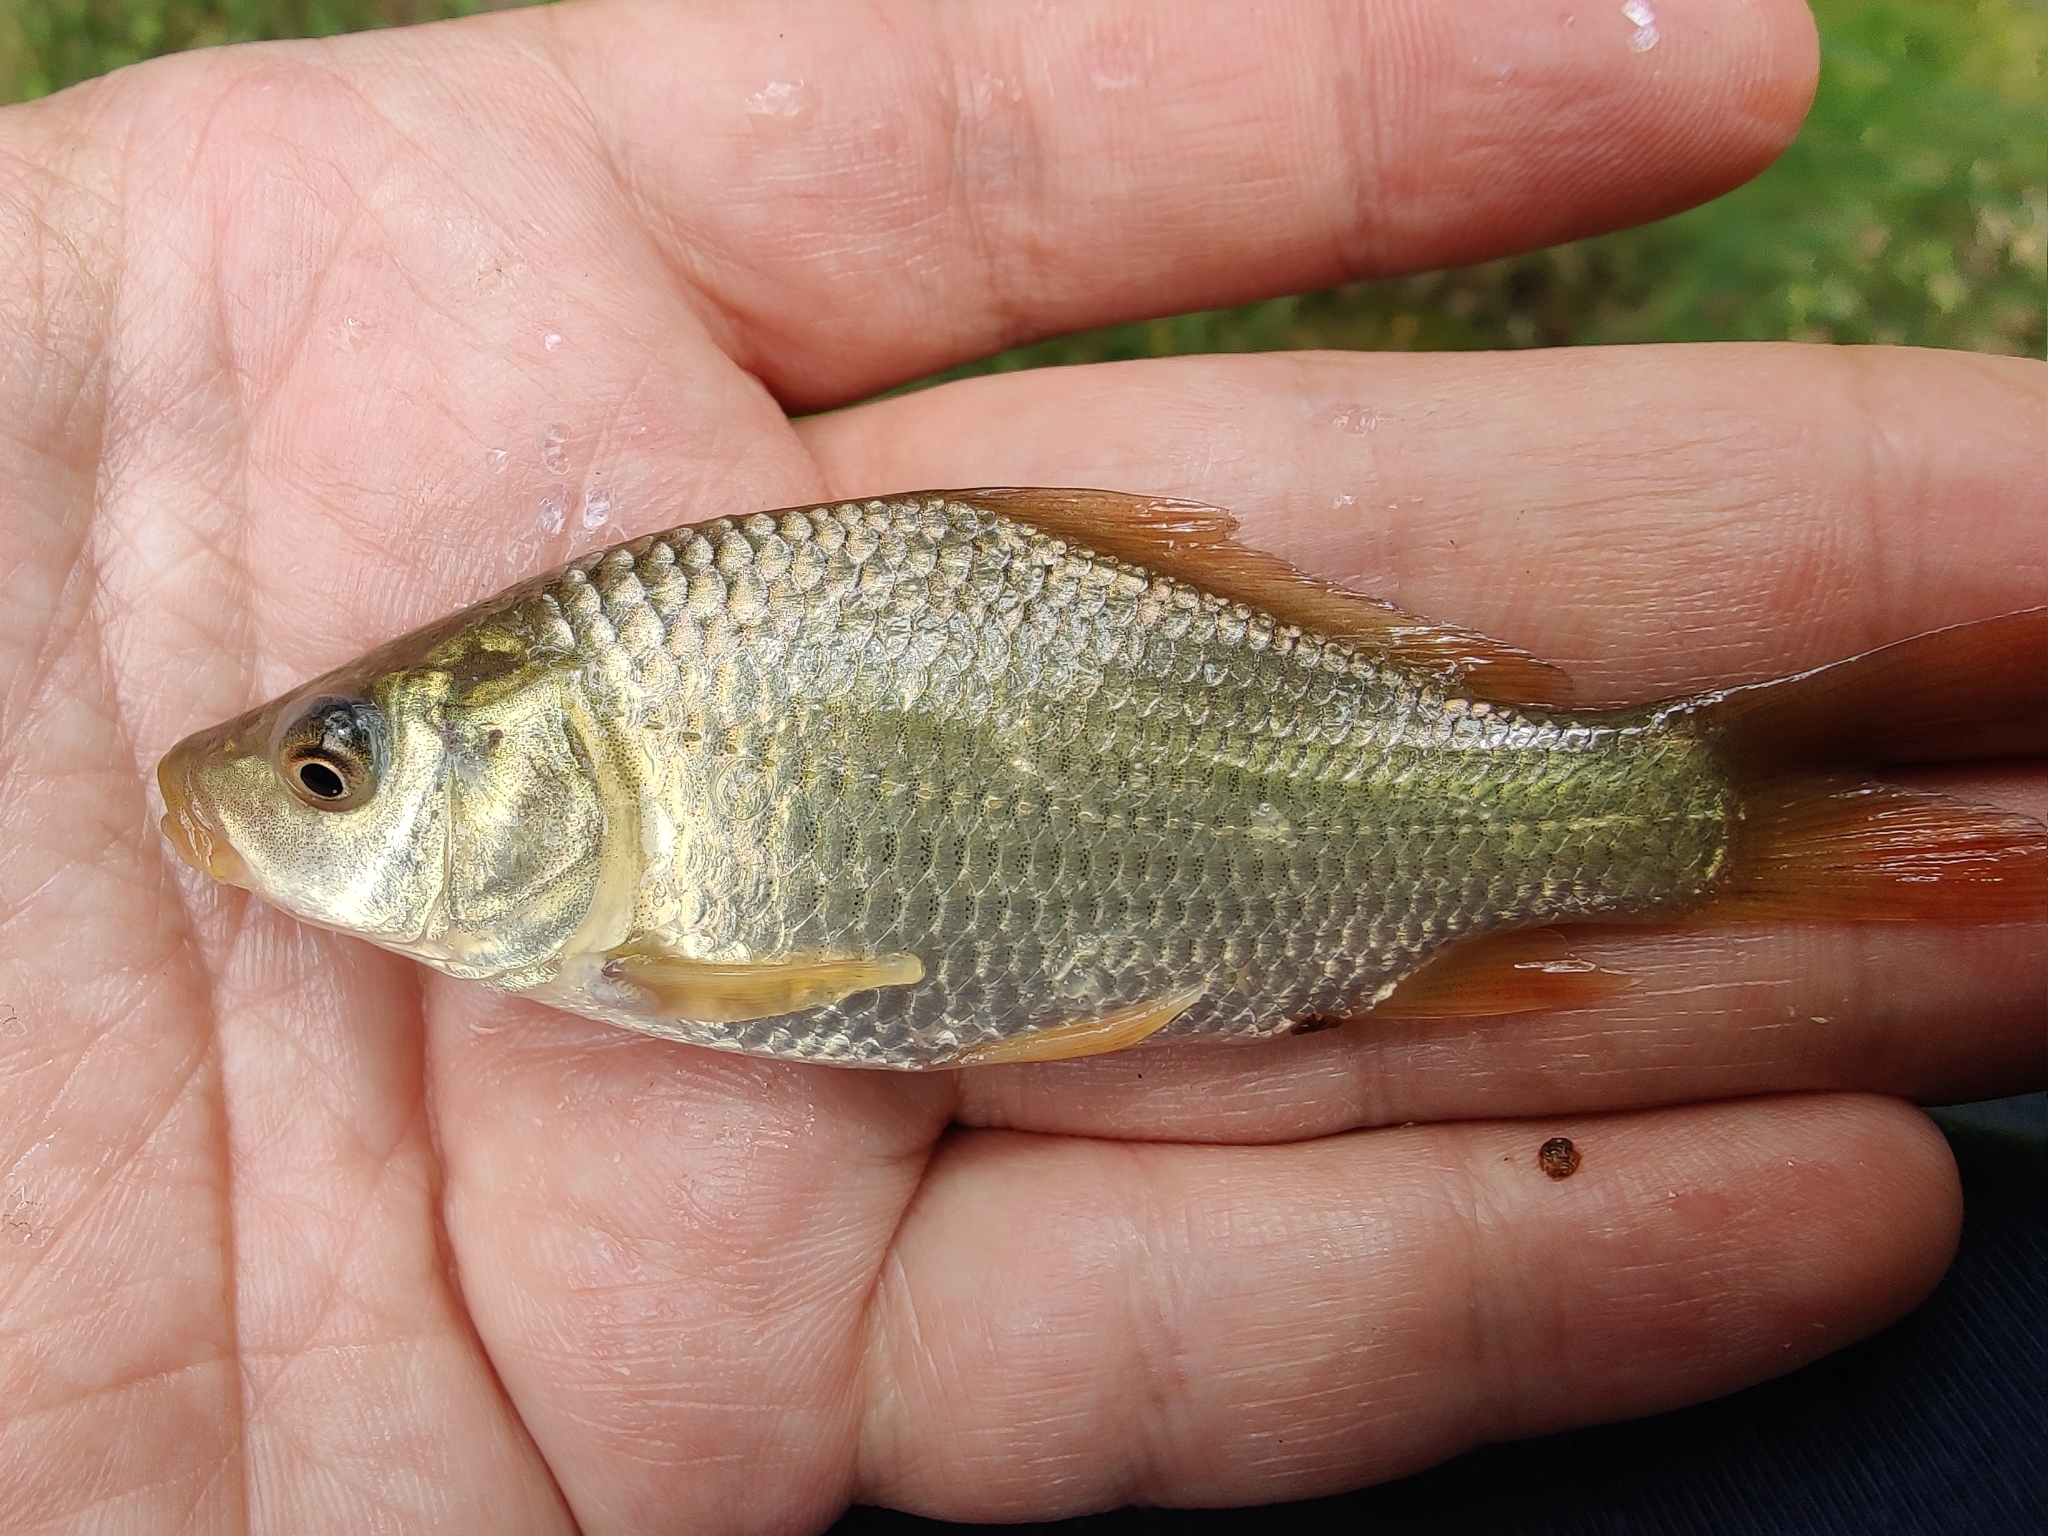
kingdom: Animalia
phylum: Chordata
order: Cypriniformes
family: Cyprinidae
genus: Cyprinus
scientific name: Cyprinus carpio
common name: Common carp
